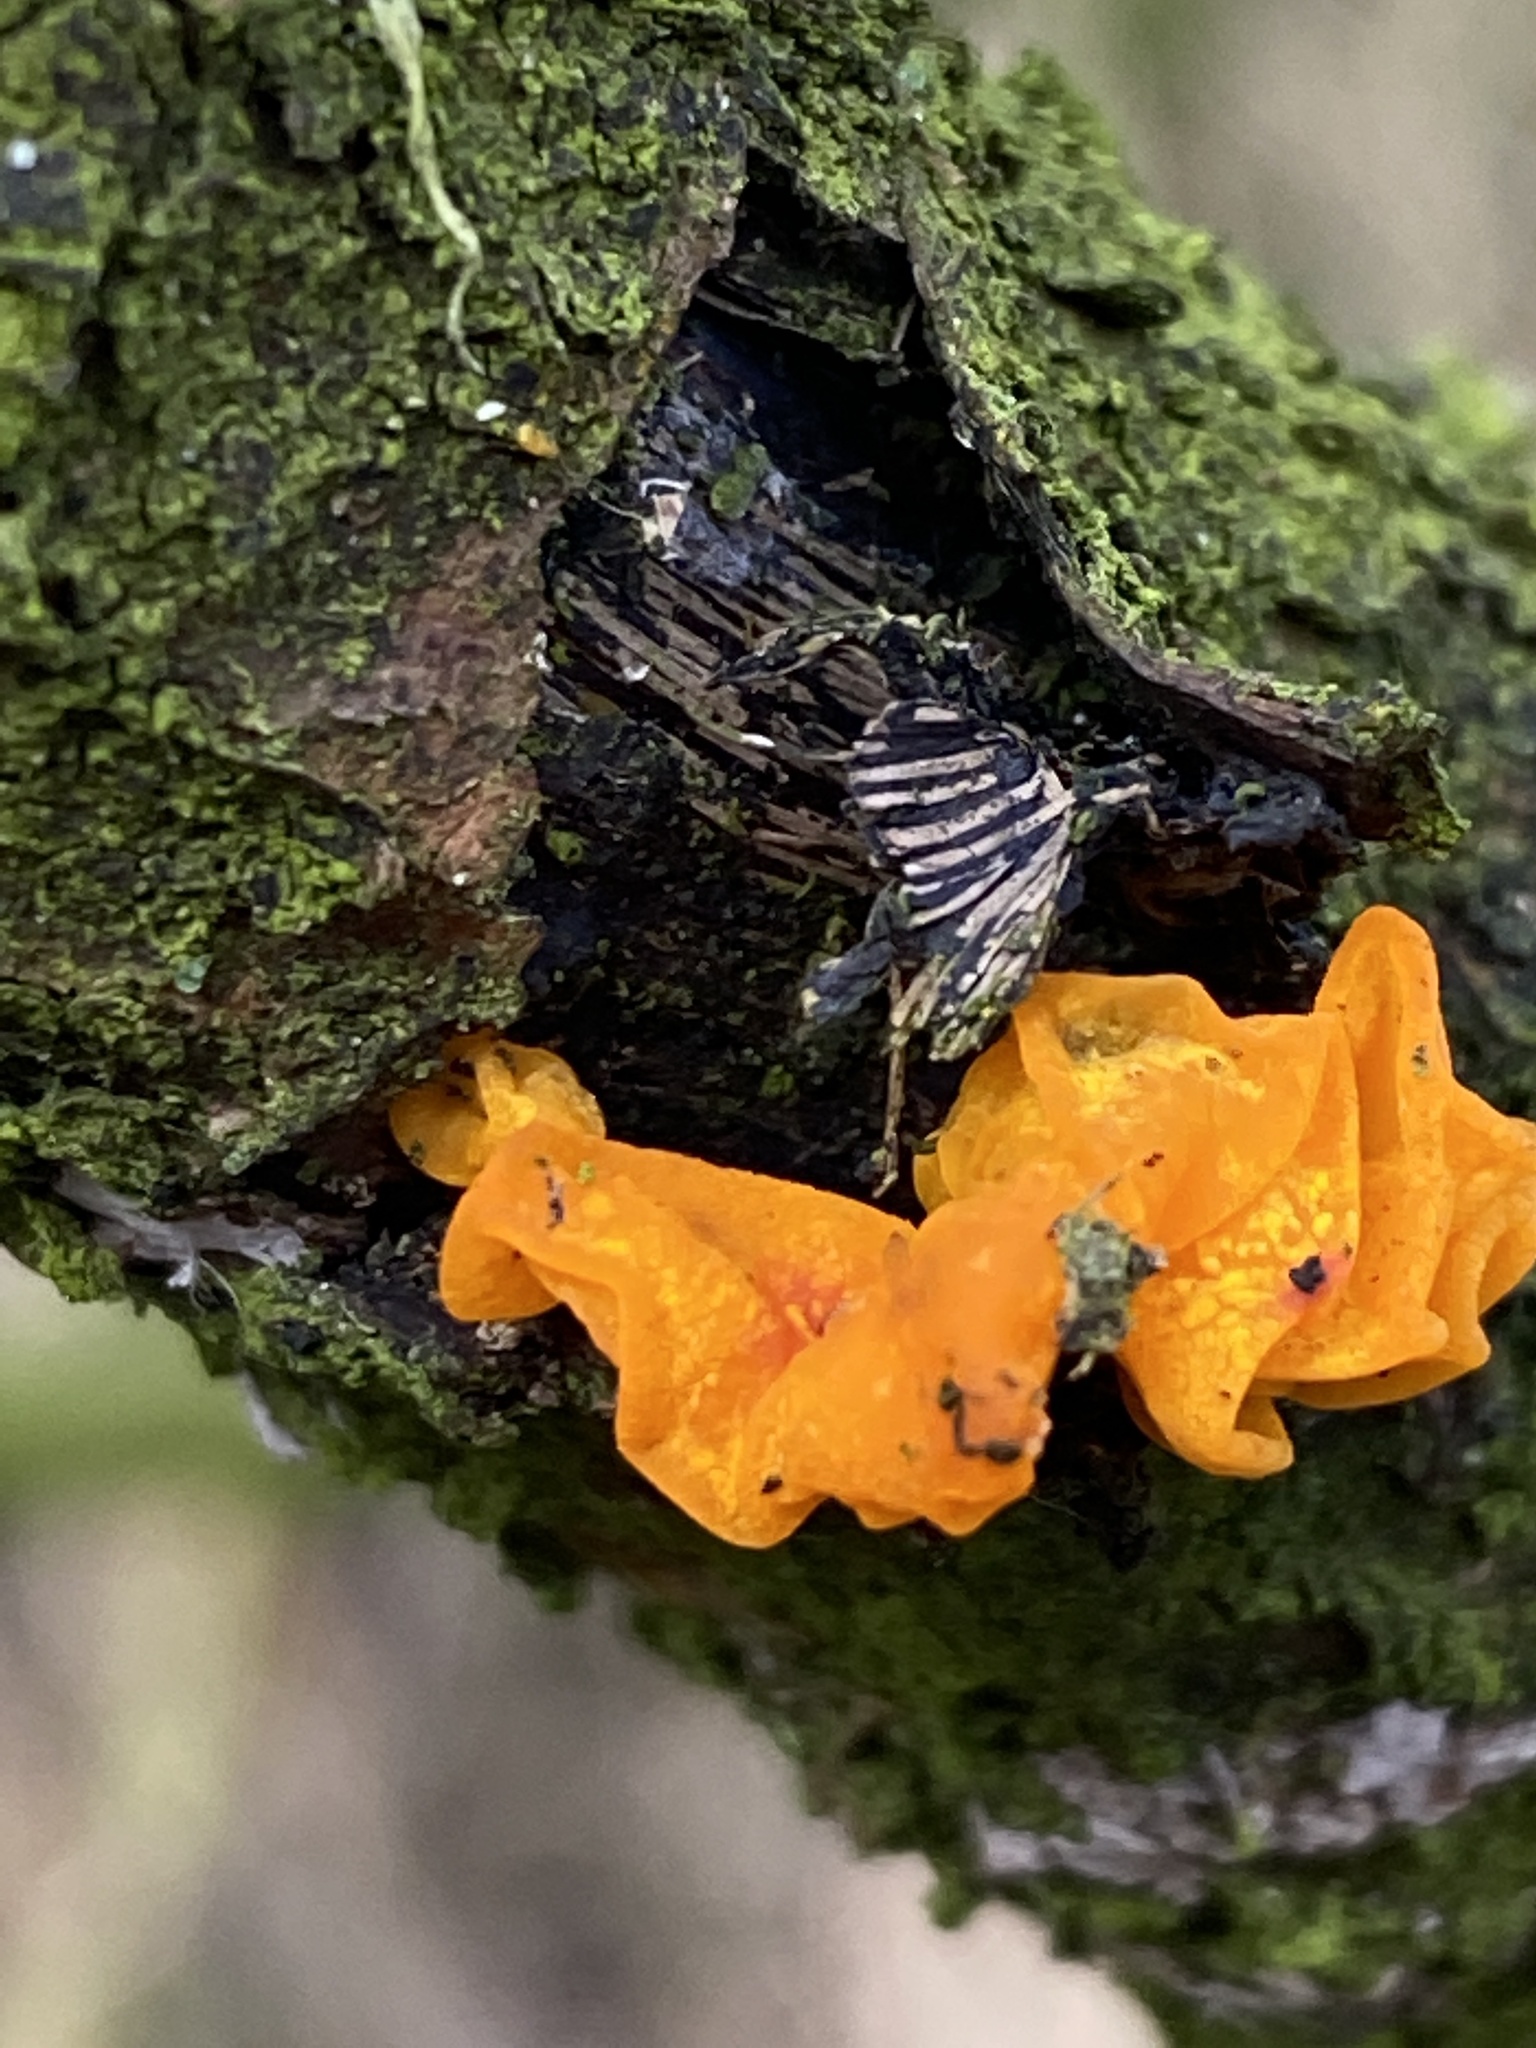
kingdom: Fungi
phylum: Basidiomycota
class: Tremellomycetes
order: Tremellales
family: Tremellaceae
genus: Tremella
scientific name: Tremella mesenterica
